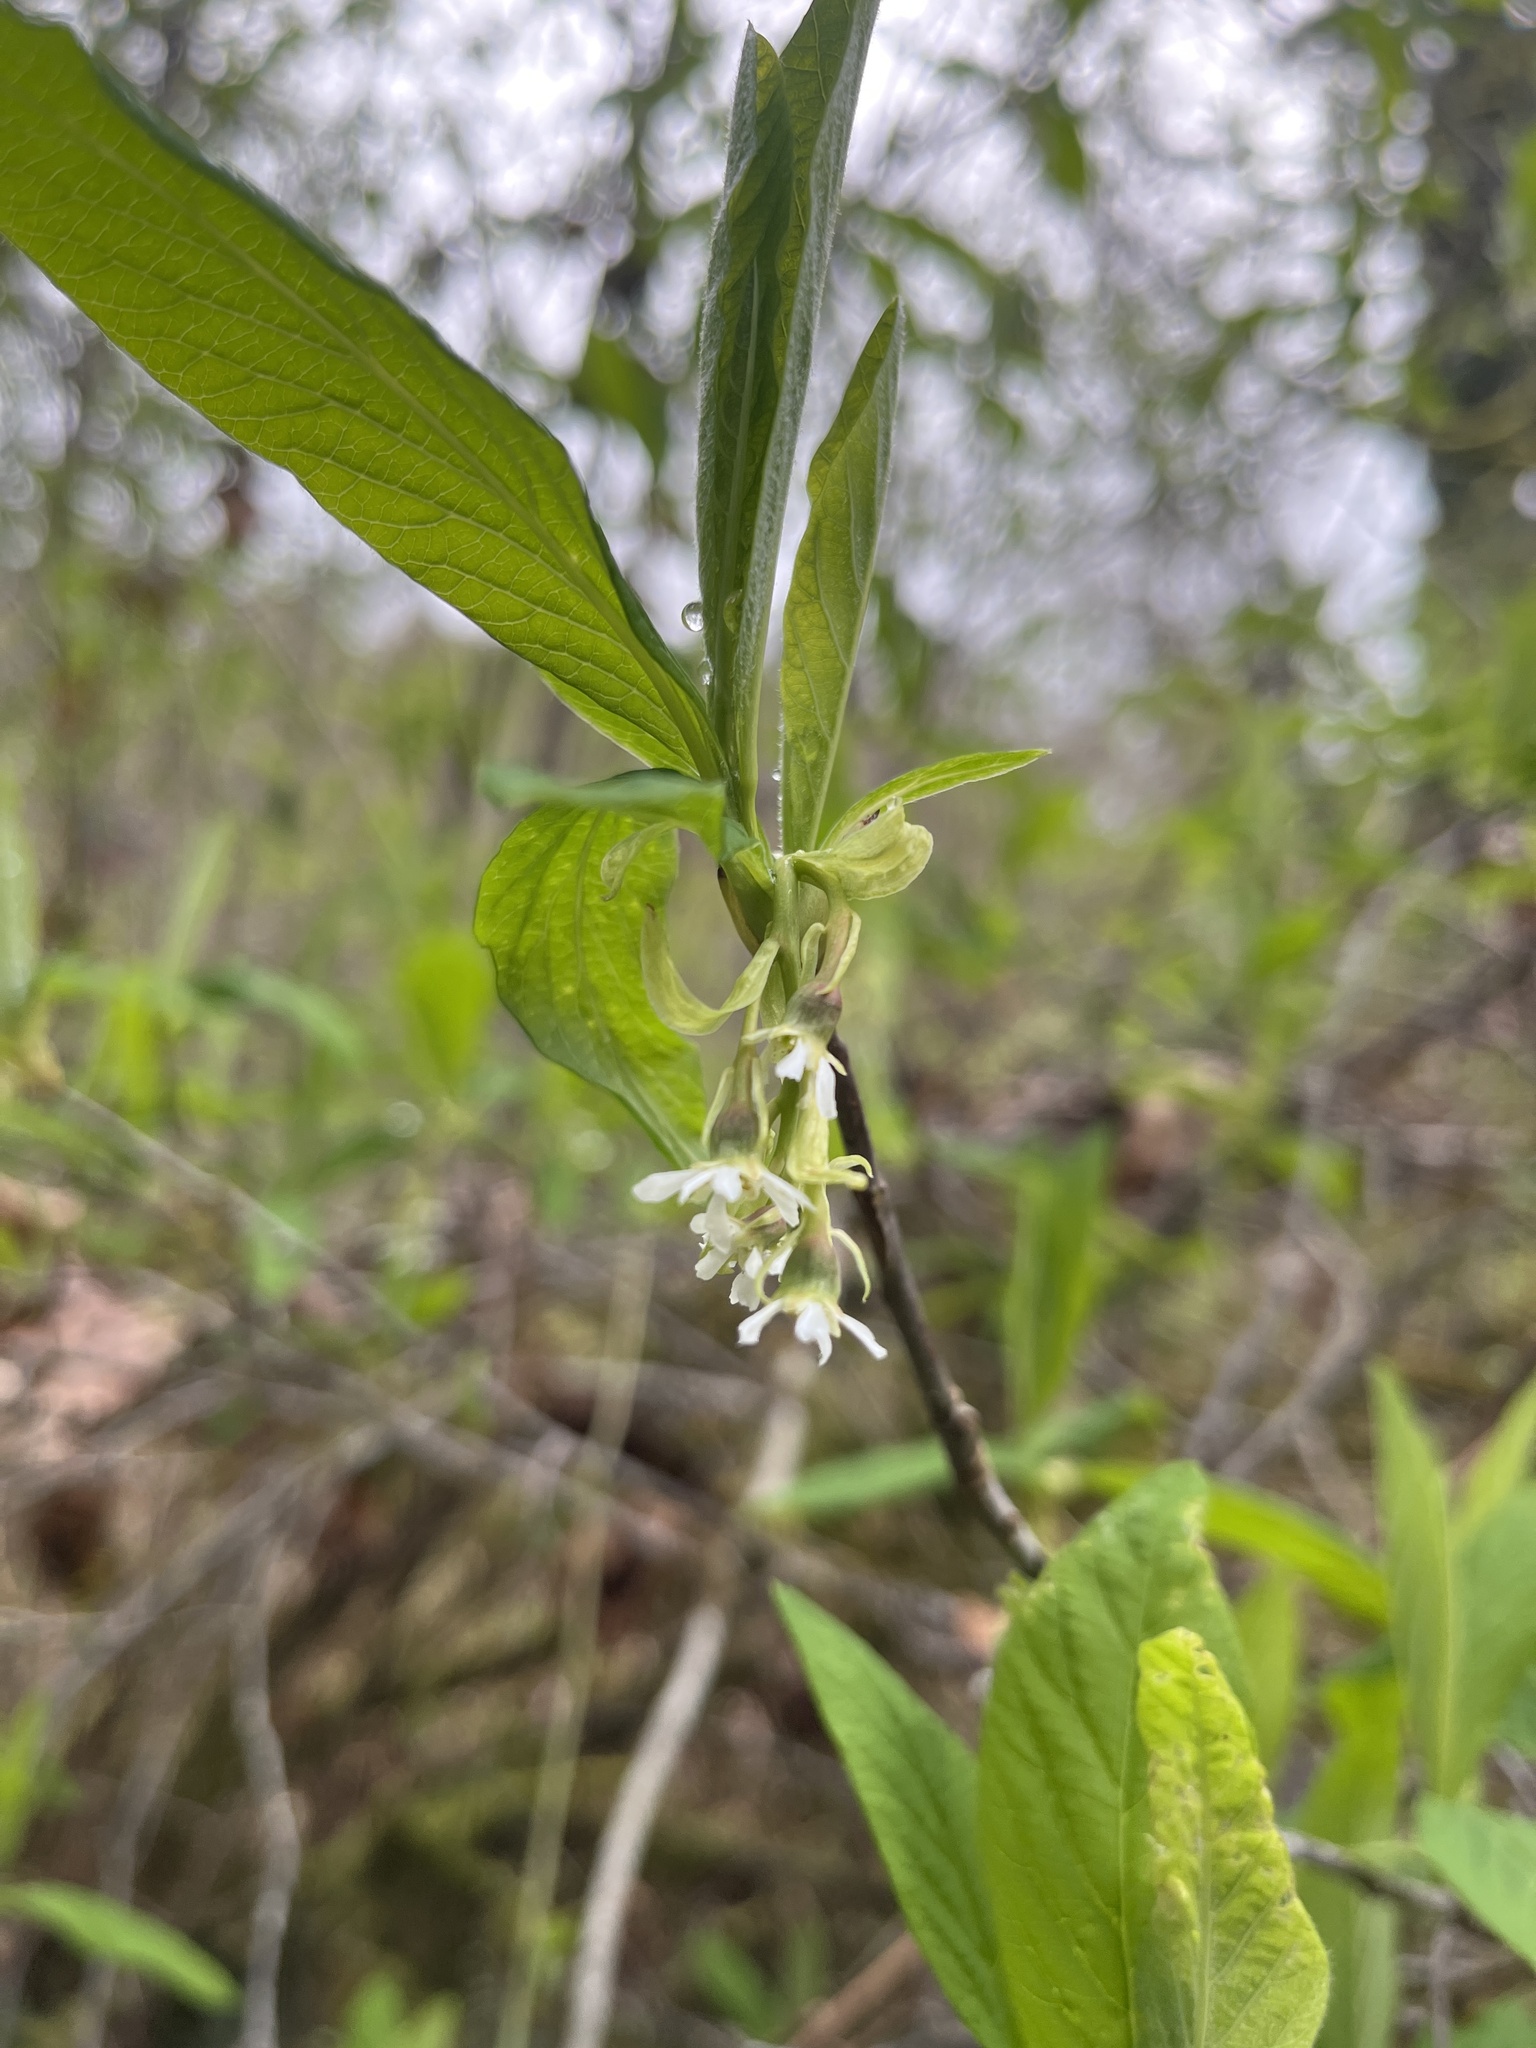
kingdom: Plantae
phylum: Tracheophyta
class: Magnoliopsida
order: Rosales
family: Rosaceae
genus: Oemleria
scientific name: Oemleria cerasiformis
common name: Osoberry
